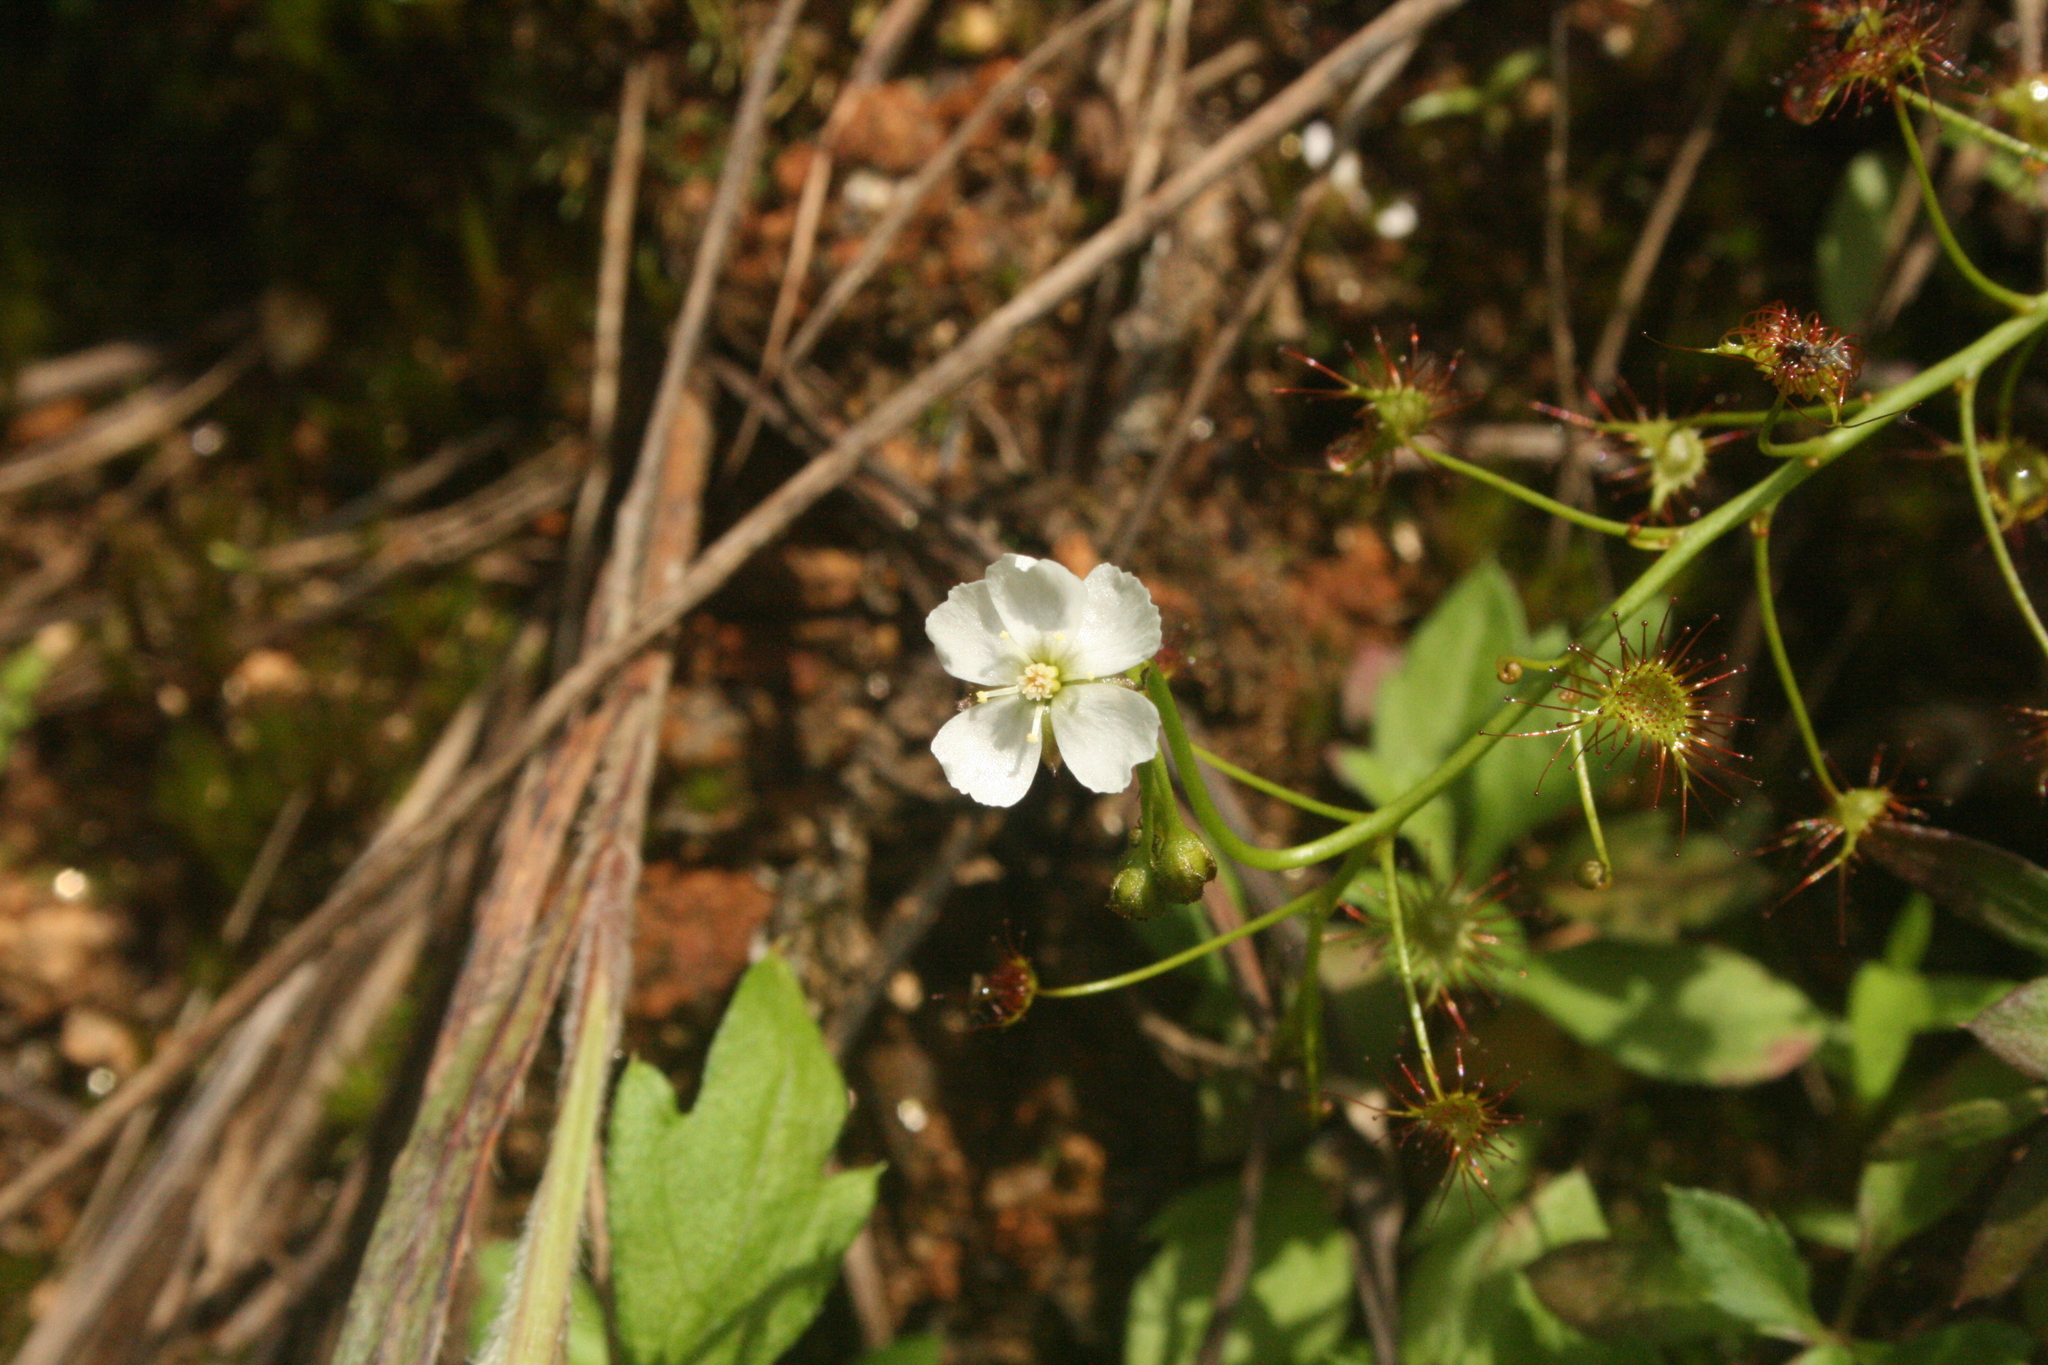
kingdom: Plantae
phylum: Tracheophyta
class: Magnoliopsida
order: Caryophyllales
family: Droseraceae
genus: Drosera
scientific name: Drosera peltata
